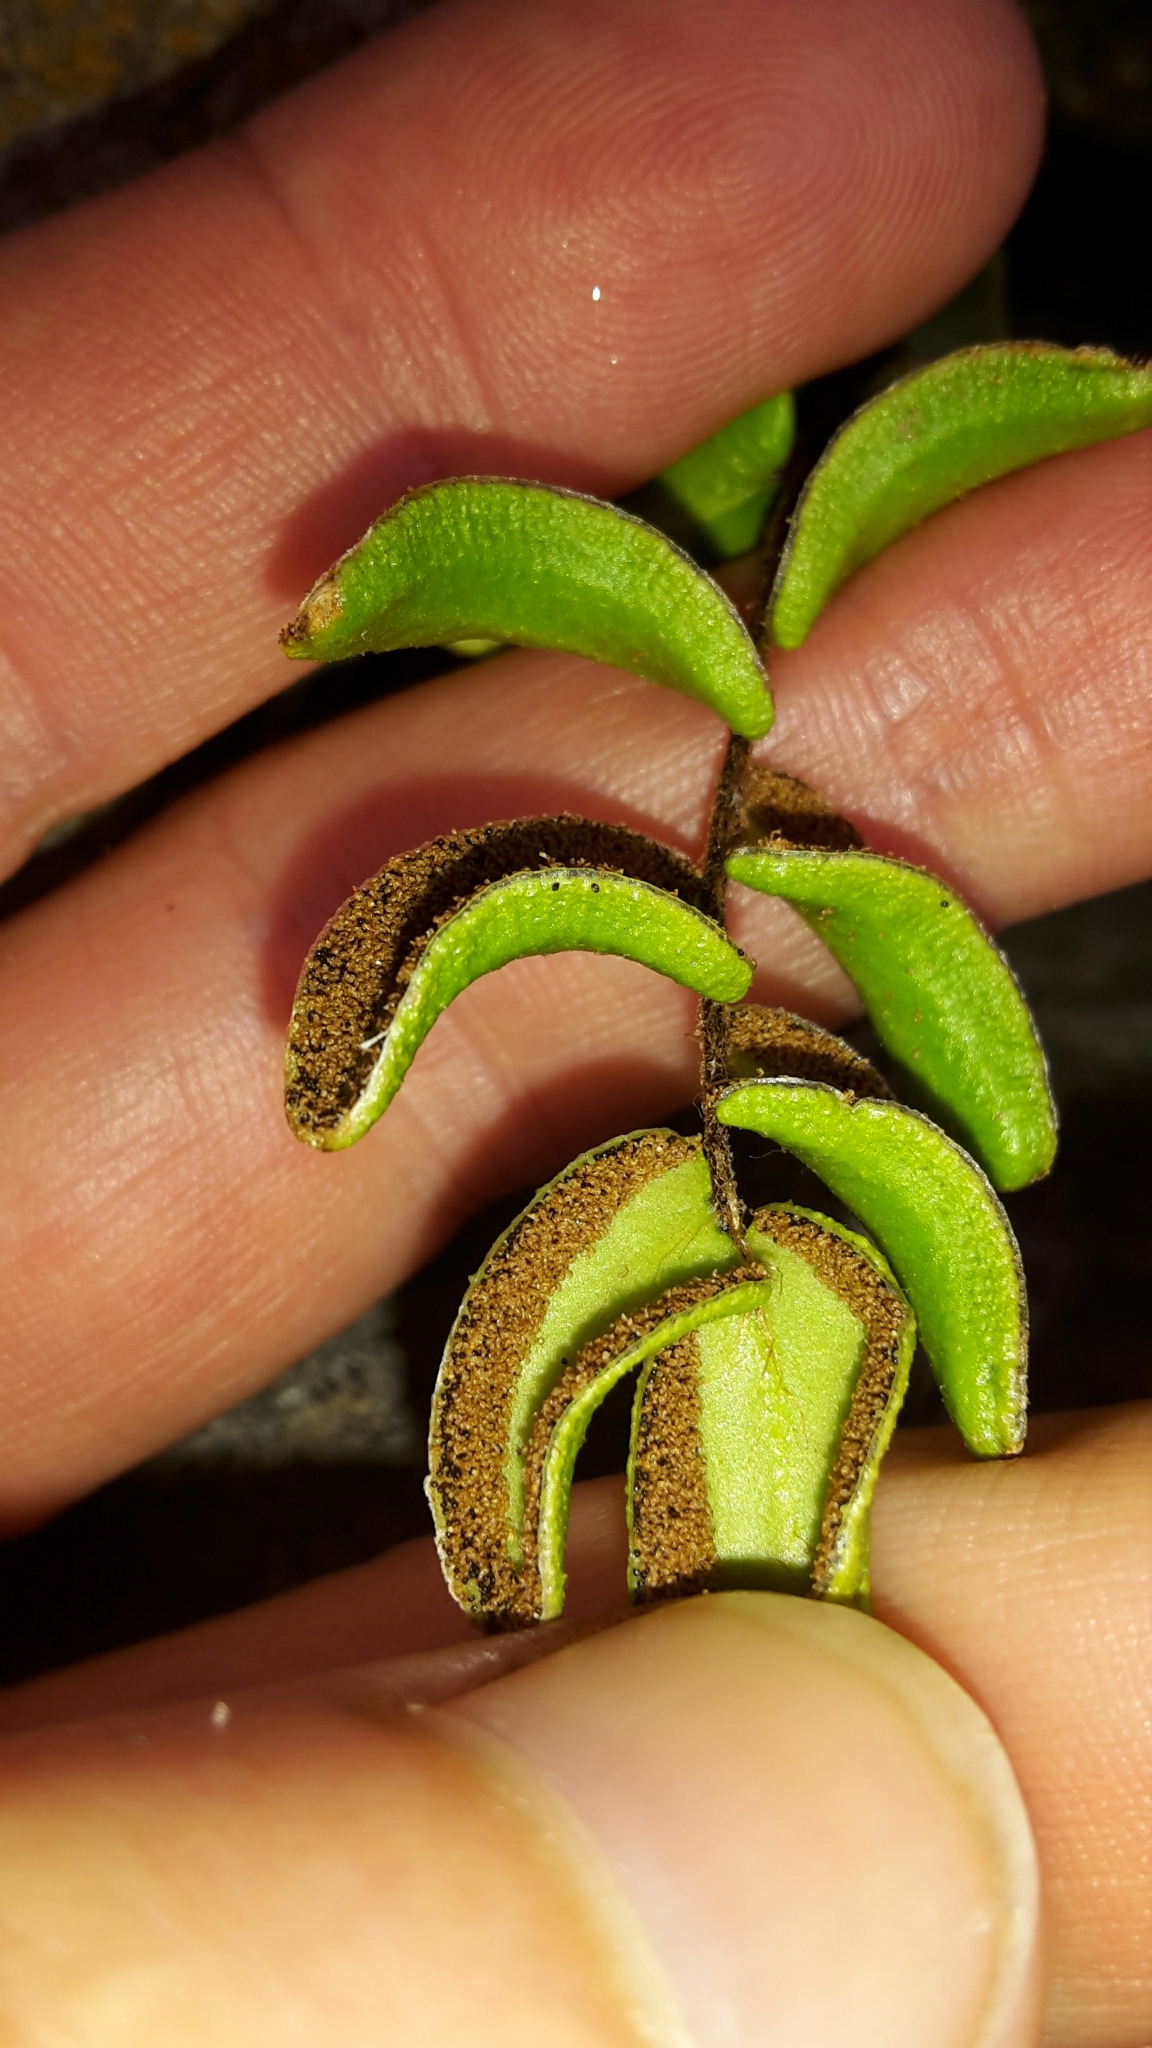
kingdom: Plantae
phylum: Tracheophyta
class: Polypodiopsida
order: Polypodiales
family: Pteridaceae
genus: Pellaea
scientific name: Pellaea calidirupium
